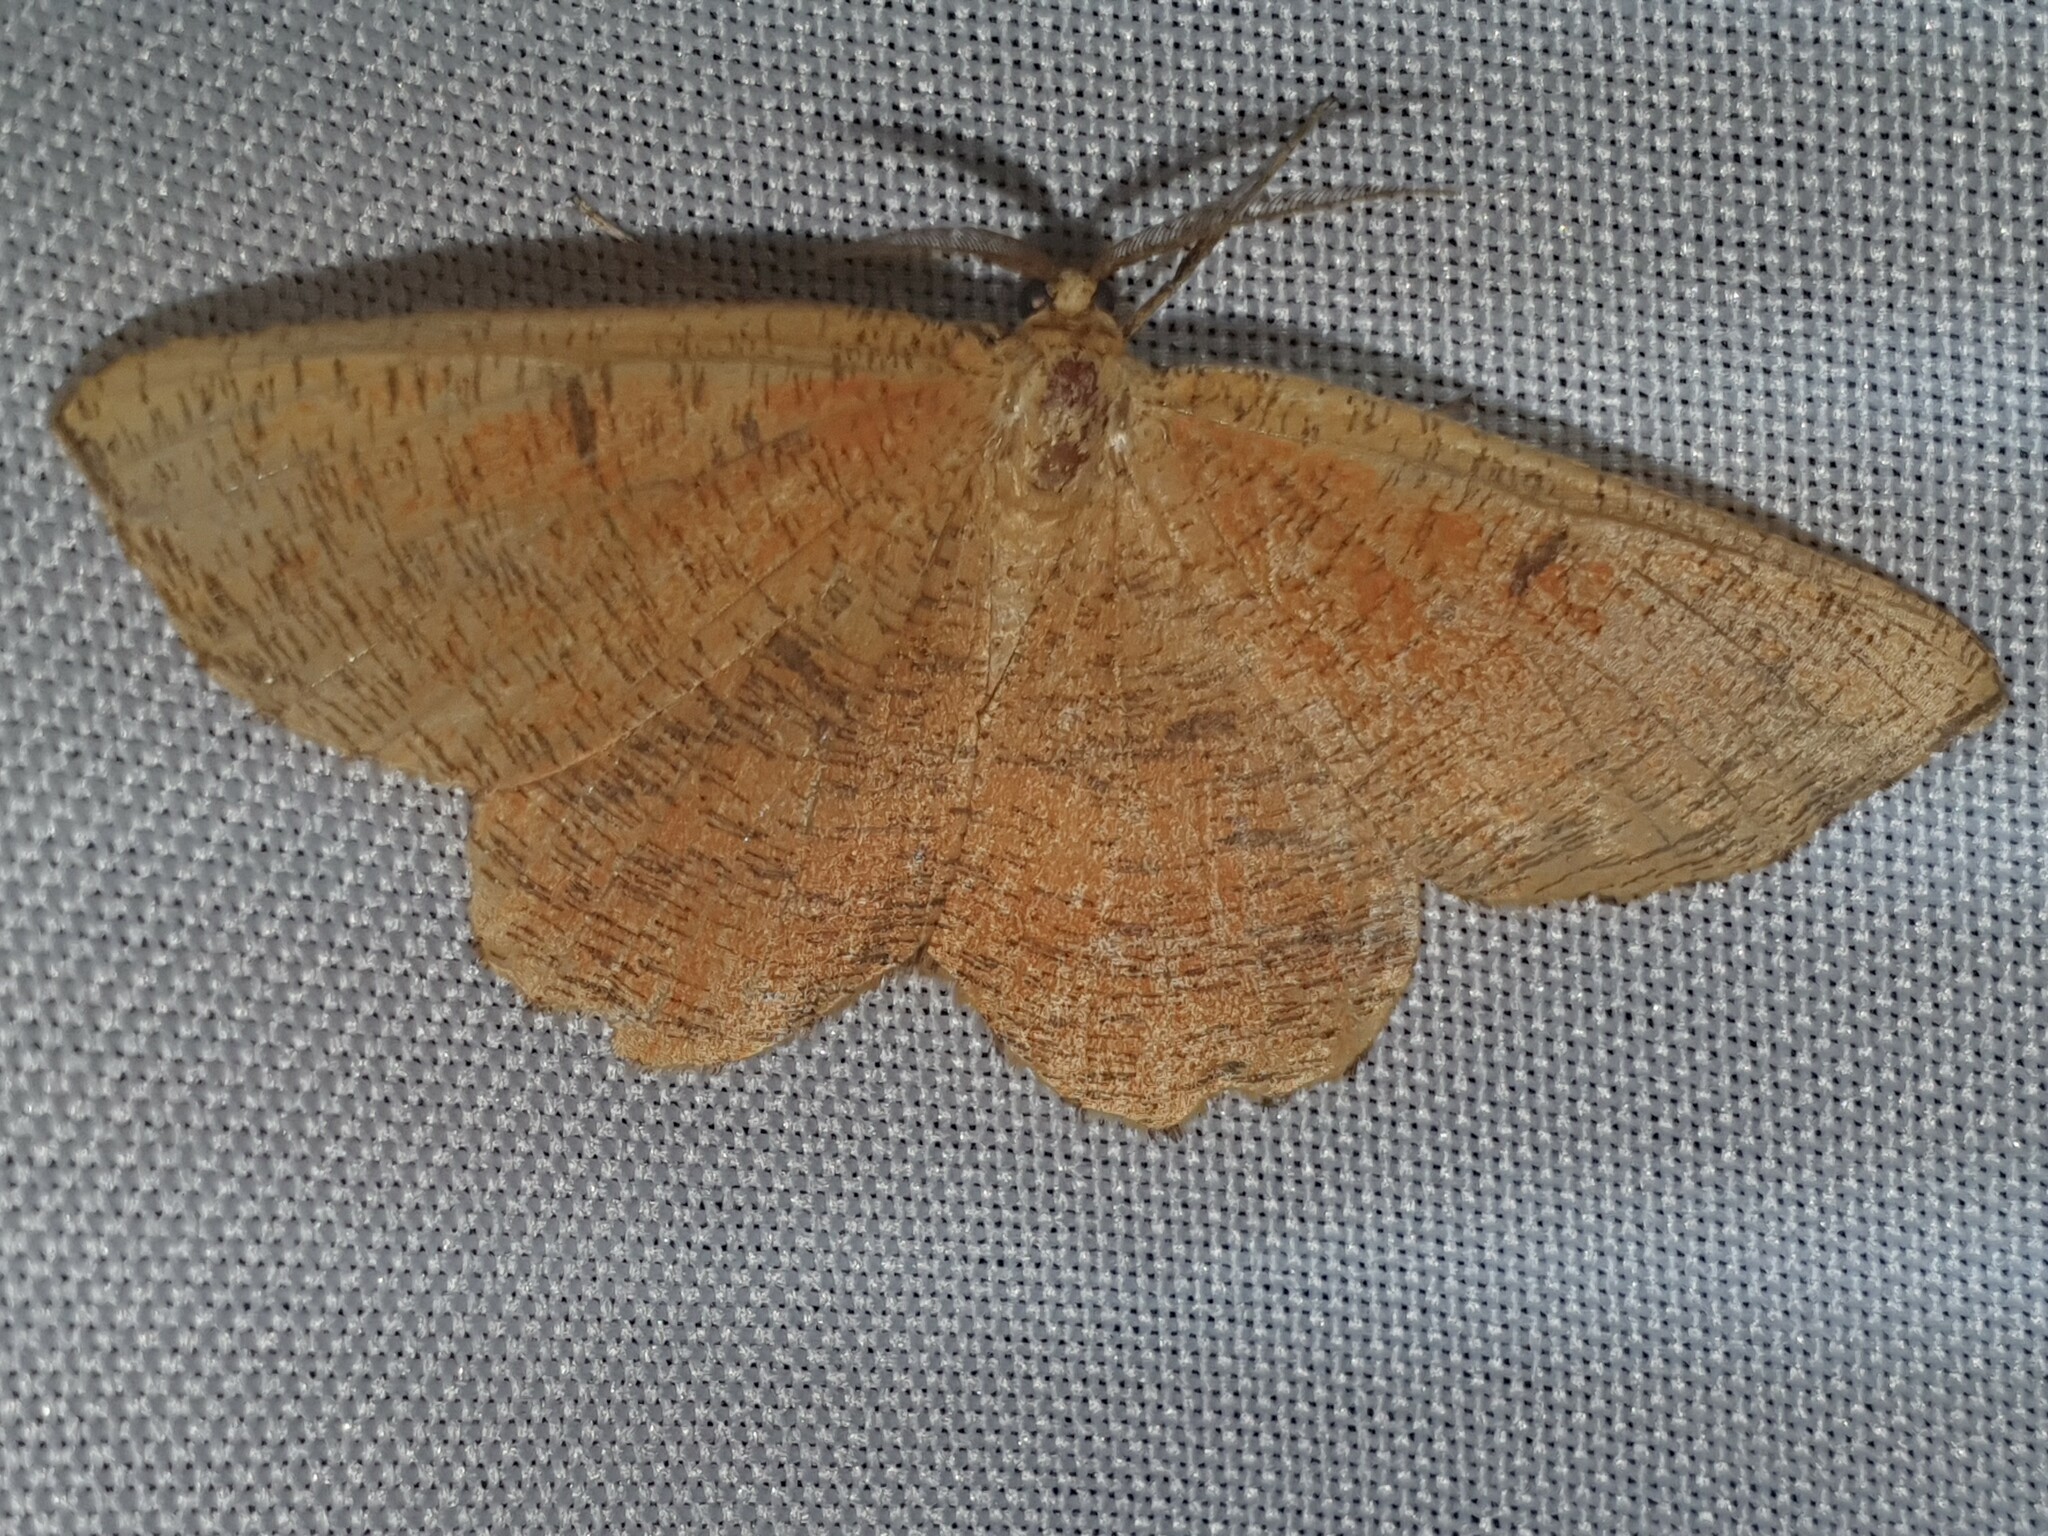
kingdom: Animalia
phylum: Arthropoda
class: Insecta
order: Lepidoptera
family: Geometridae
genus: Angerona
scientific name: Angerona prunaria
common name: Orange moth
